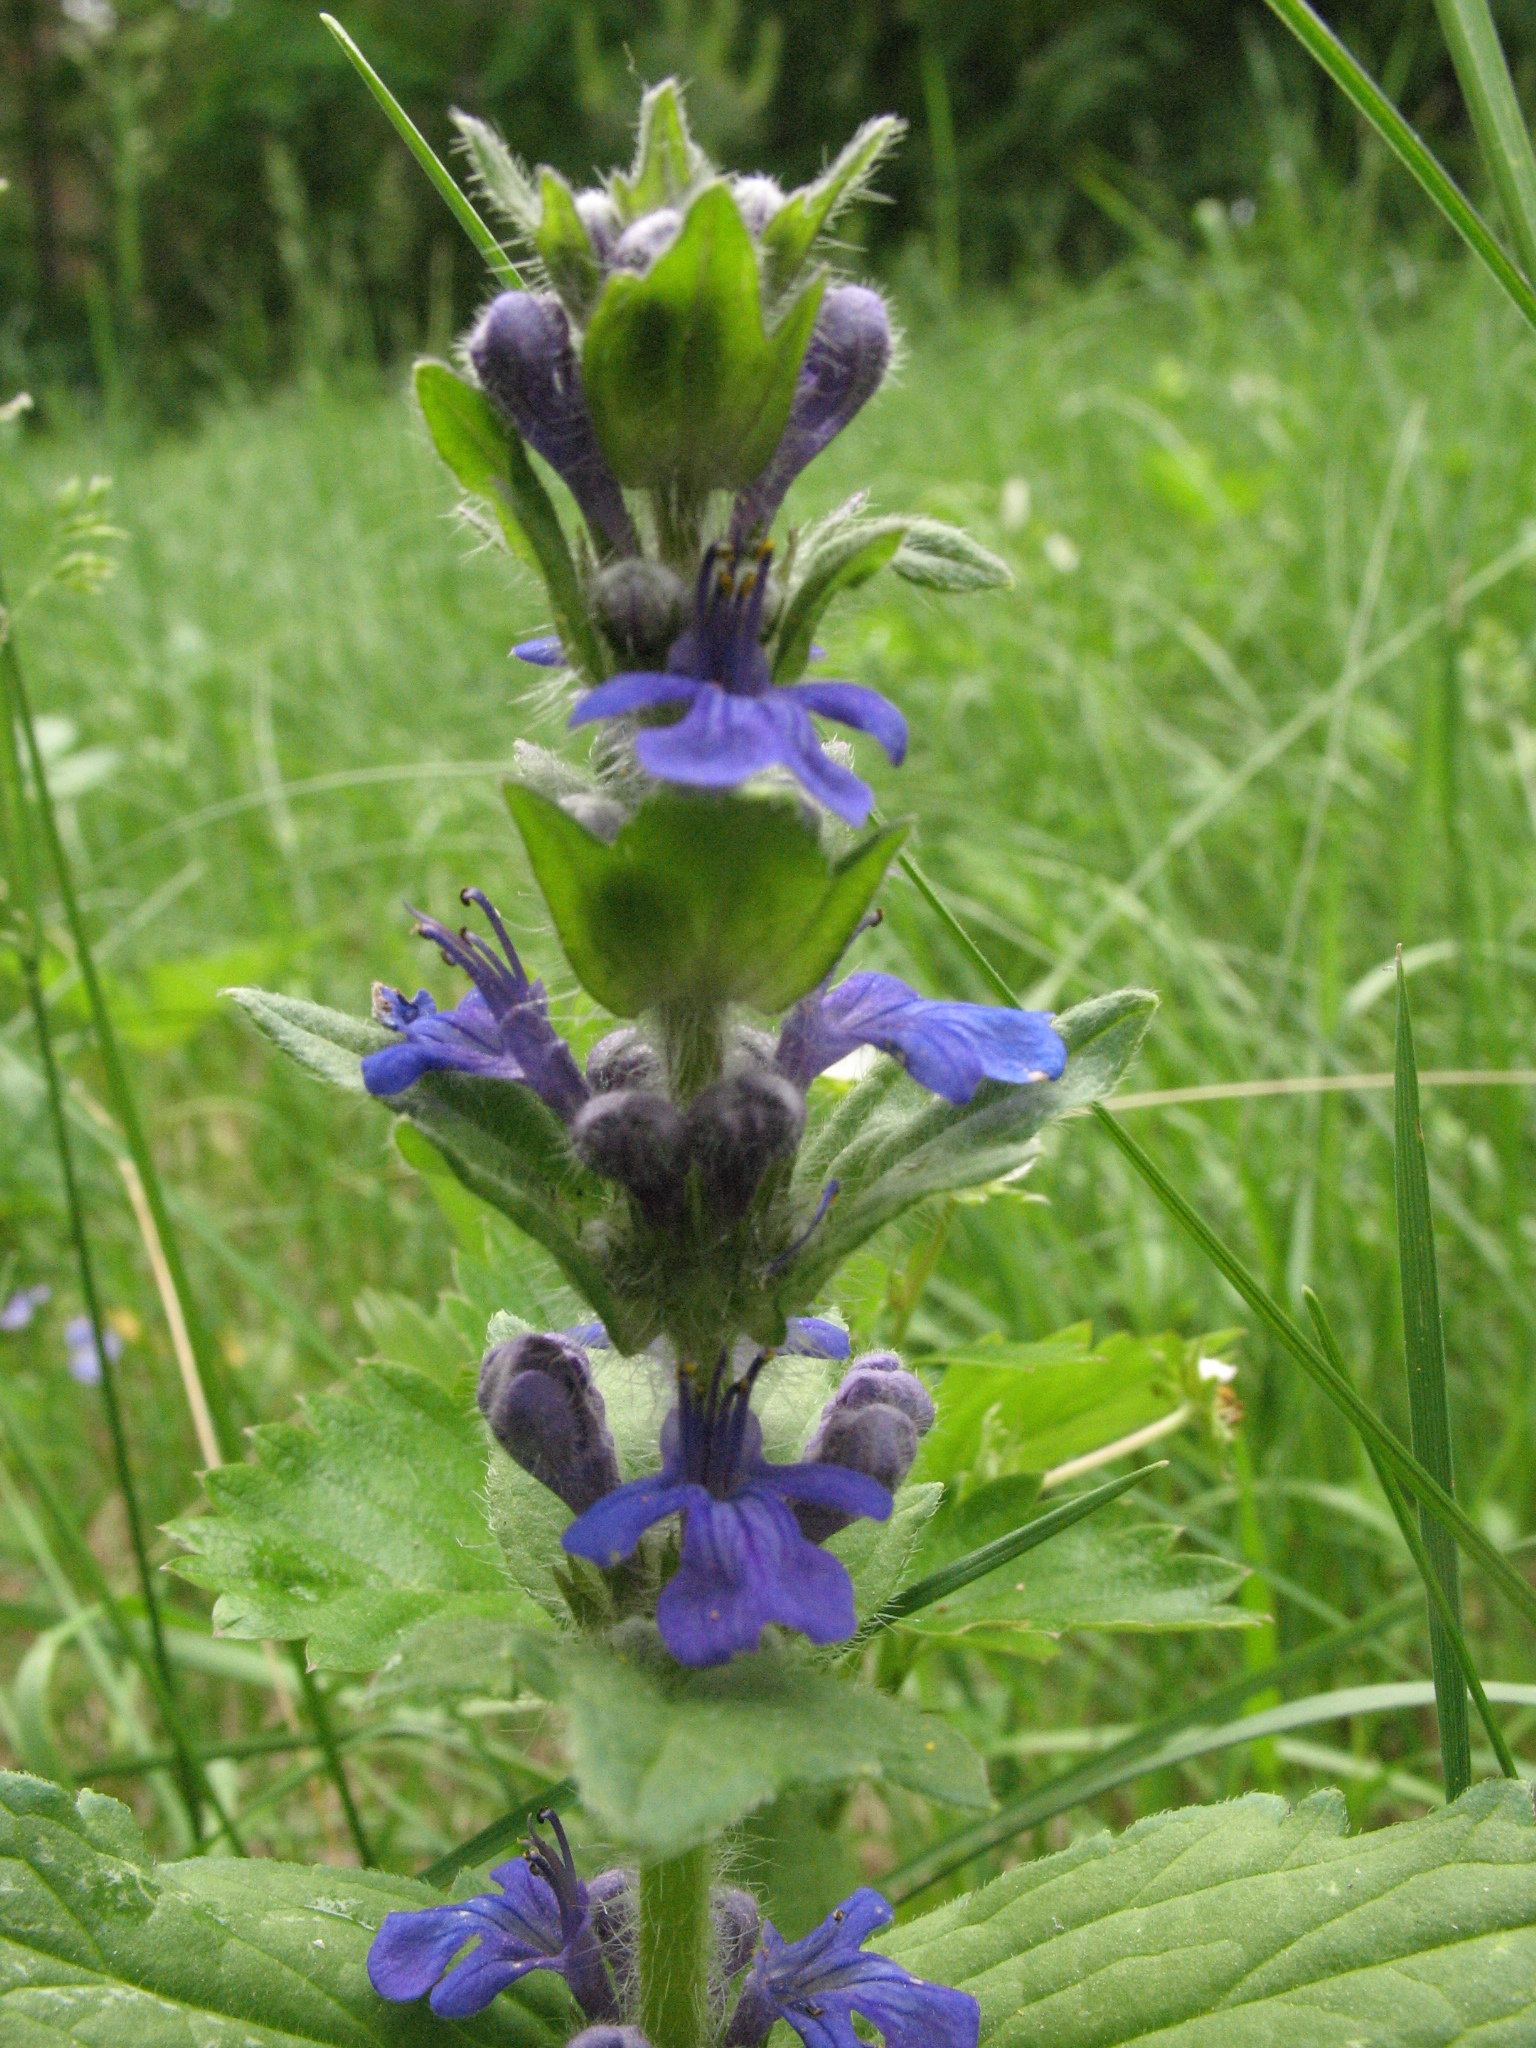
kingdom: Plantae
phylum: Tracheophyta
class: Magnoliopsida
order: Lamiales
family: Lamiaceae
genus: Ajuga
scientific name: Ajuga genevensis
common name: Blue bugle
